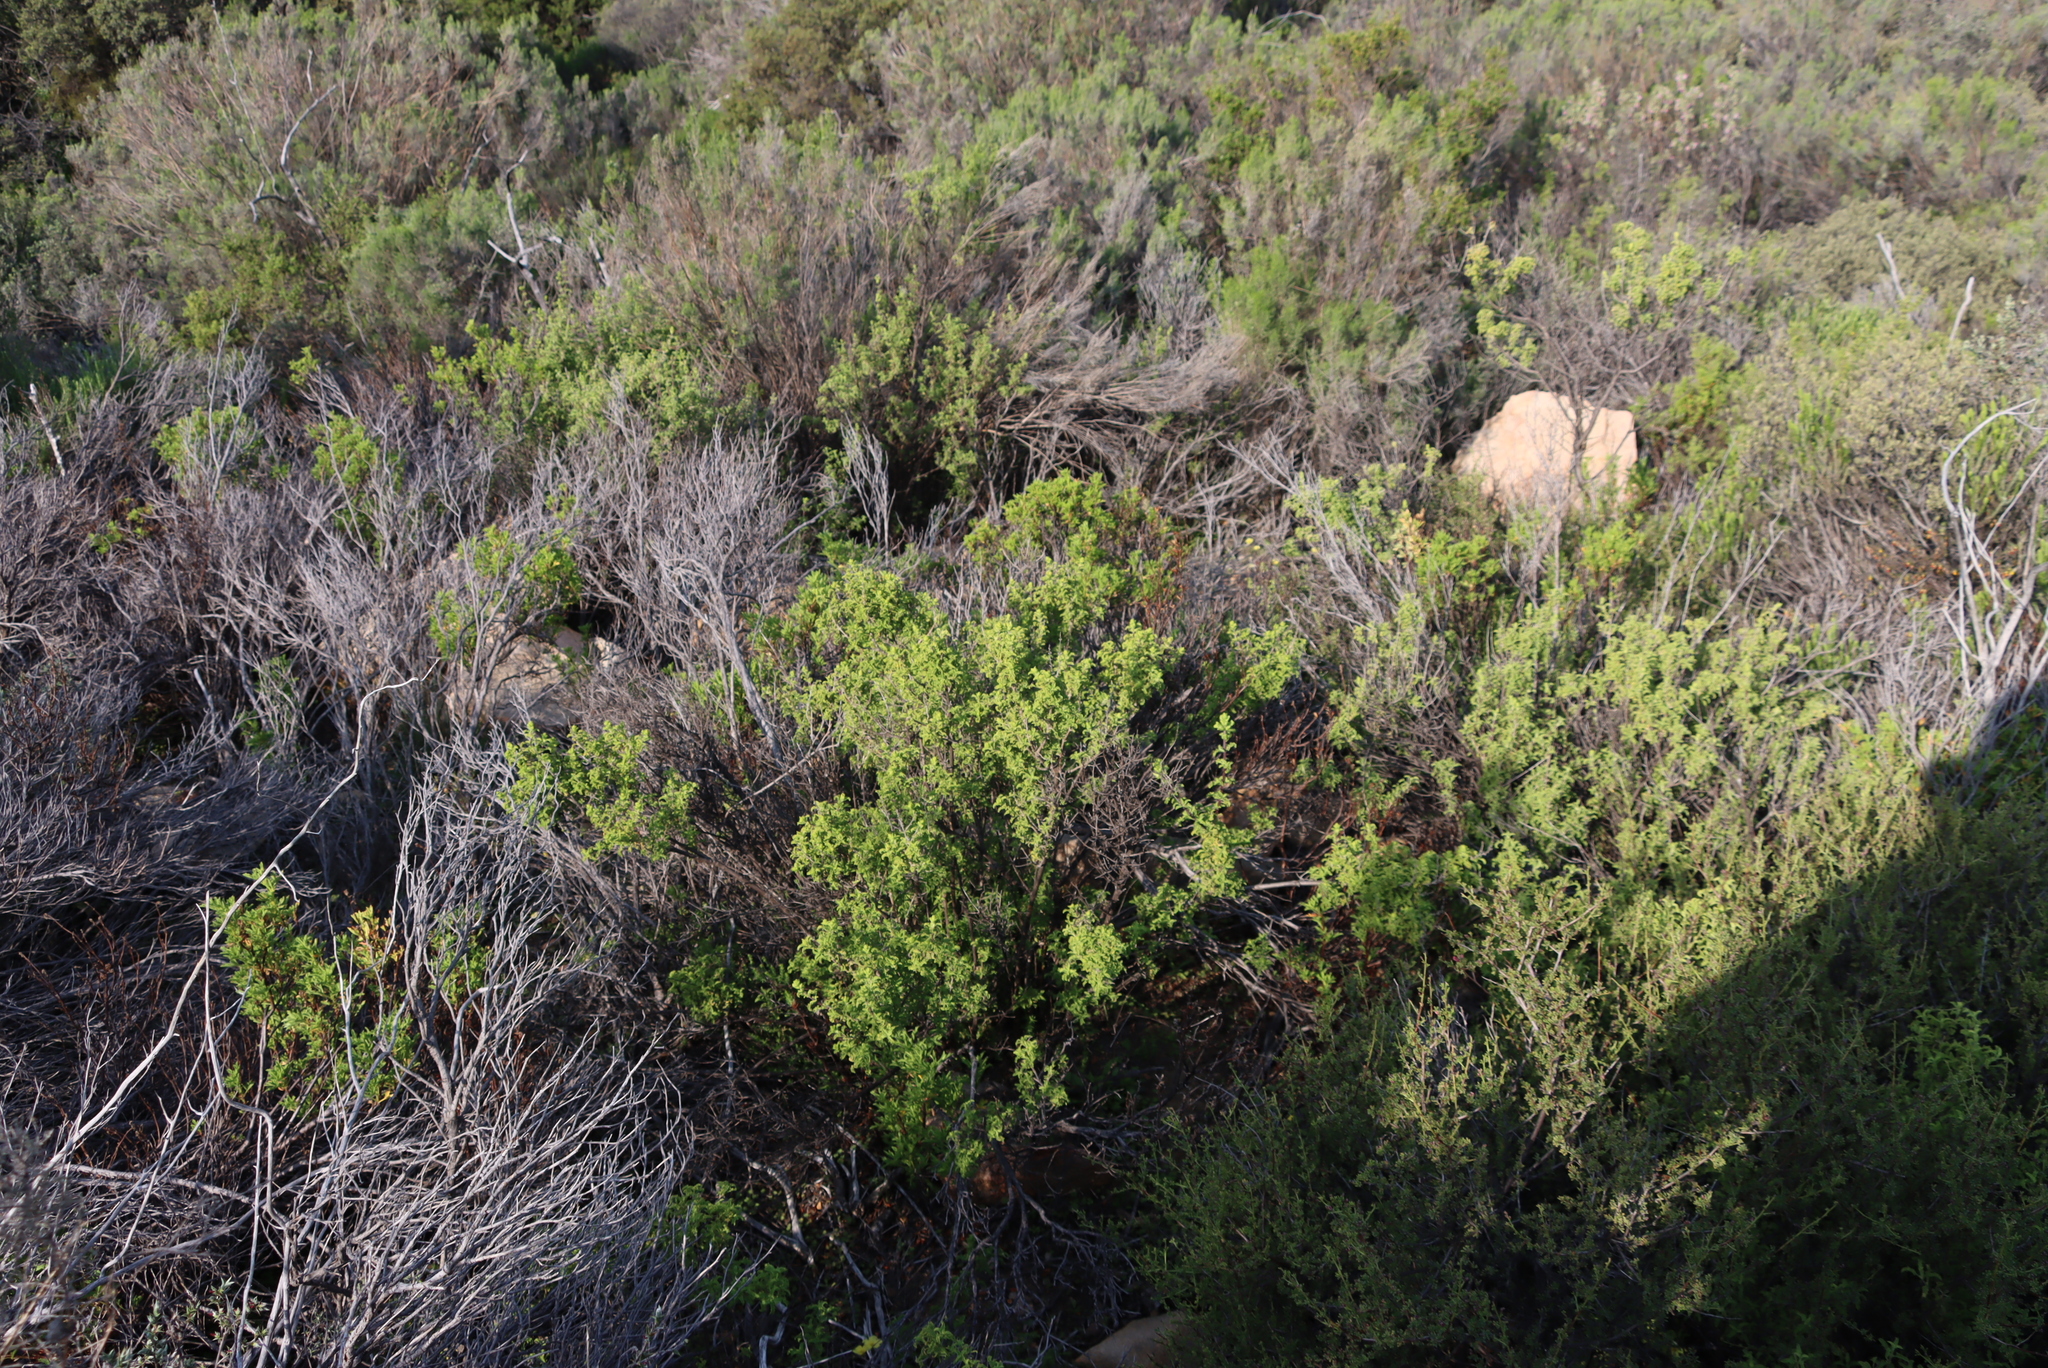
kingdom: Plantae
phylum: Tracheophyta
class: Magnoliopsida
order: Geraniales
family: Geraniaceae
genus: Pelargonium
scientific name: Pelargonium scabrum
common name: Apricot geranium
